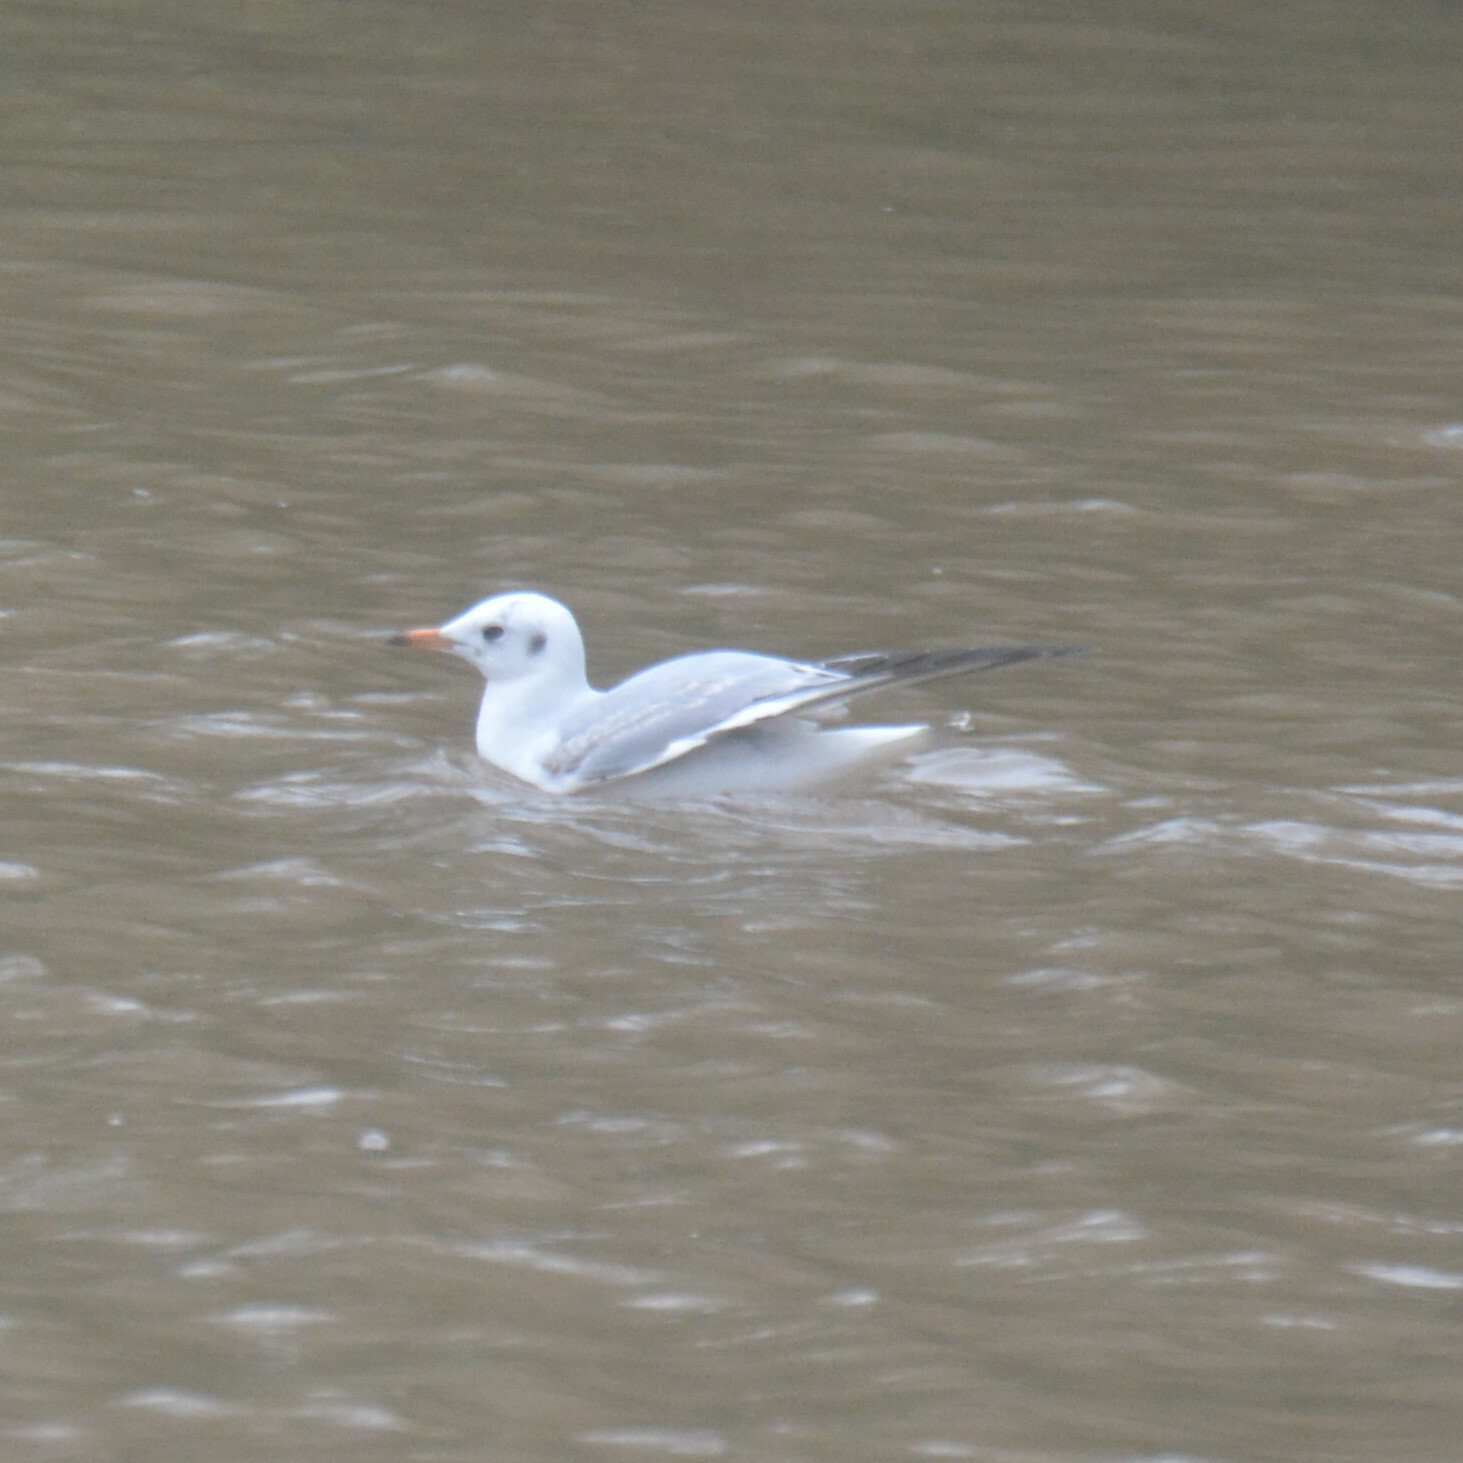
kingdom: Animalia
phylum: Chordata
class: Aves
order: Charadriiformes
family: Laridae
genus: Chroicocephalus
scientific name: Chroicocephalus ridibundus
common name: Black-headed gull
